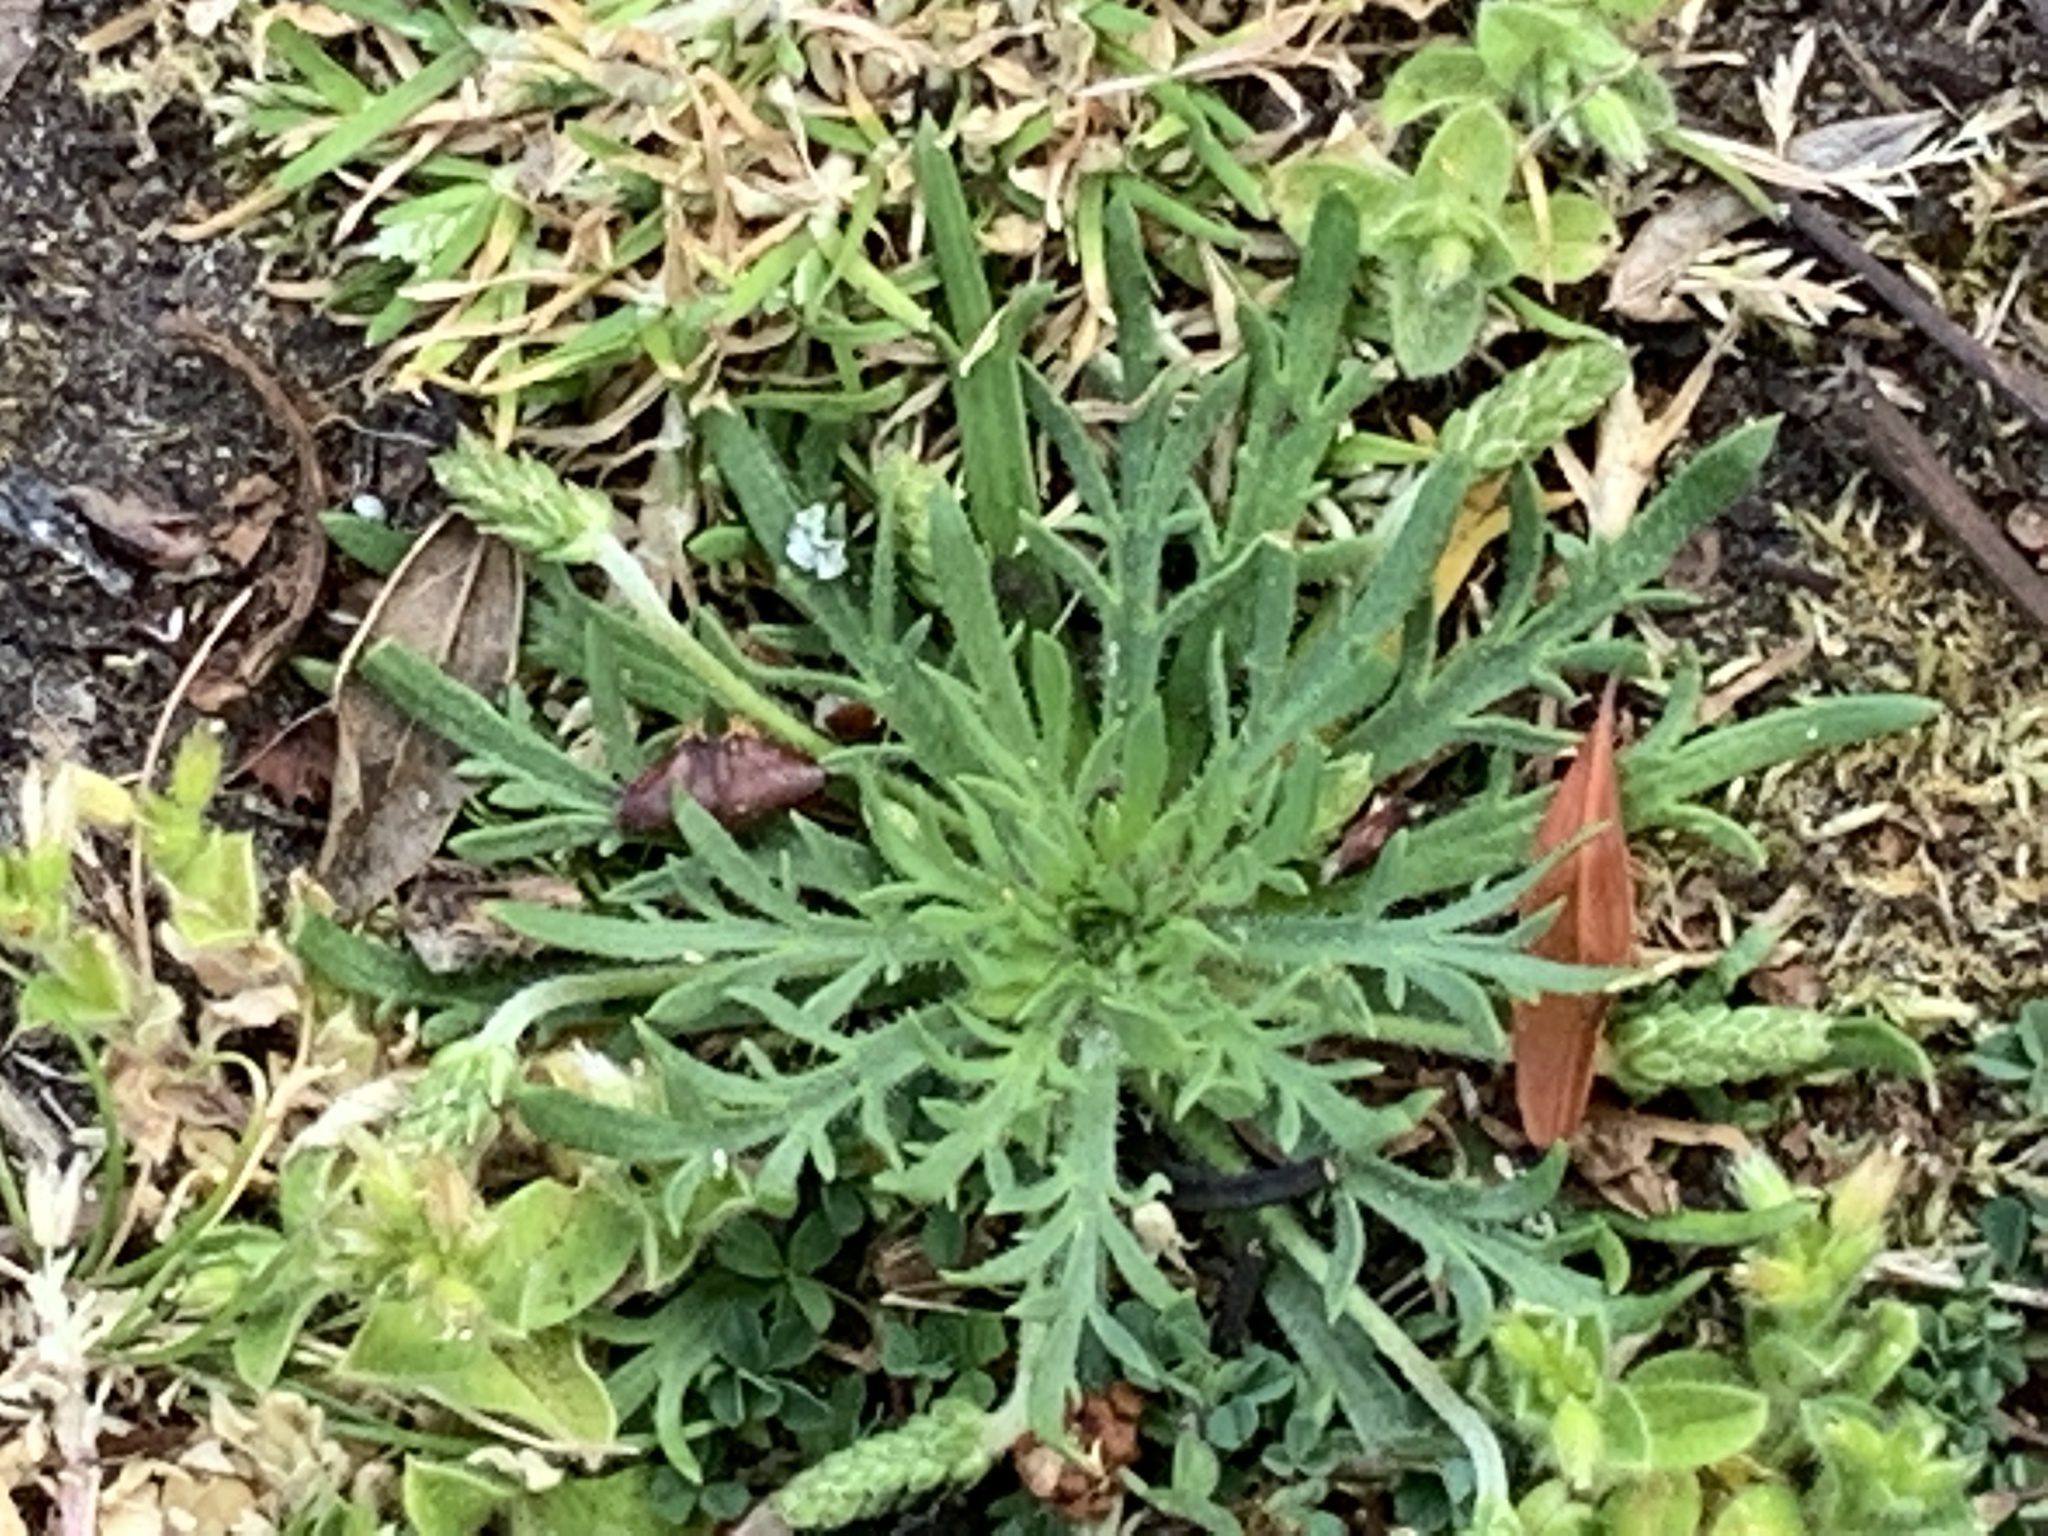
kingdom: Plantae
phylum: Tracheophyta
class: Magnoliopsida
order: Lamiales
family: Plantaginaceae
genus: Plantago
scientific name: Plantago coronopus
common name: Buck's-horn plantain
